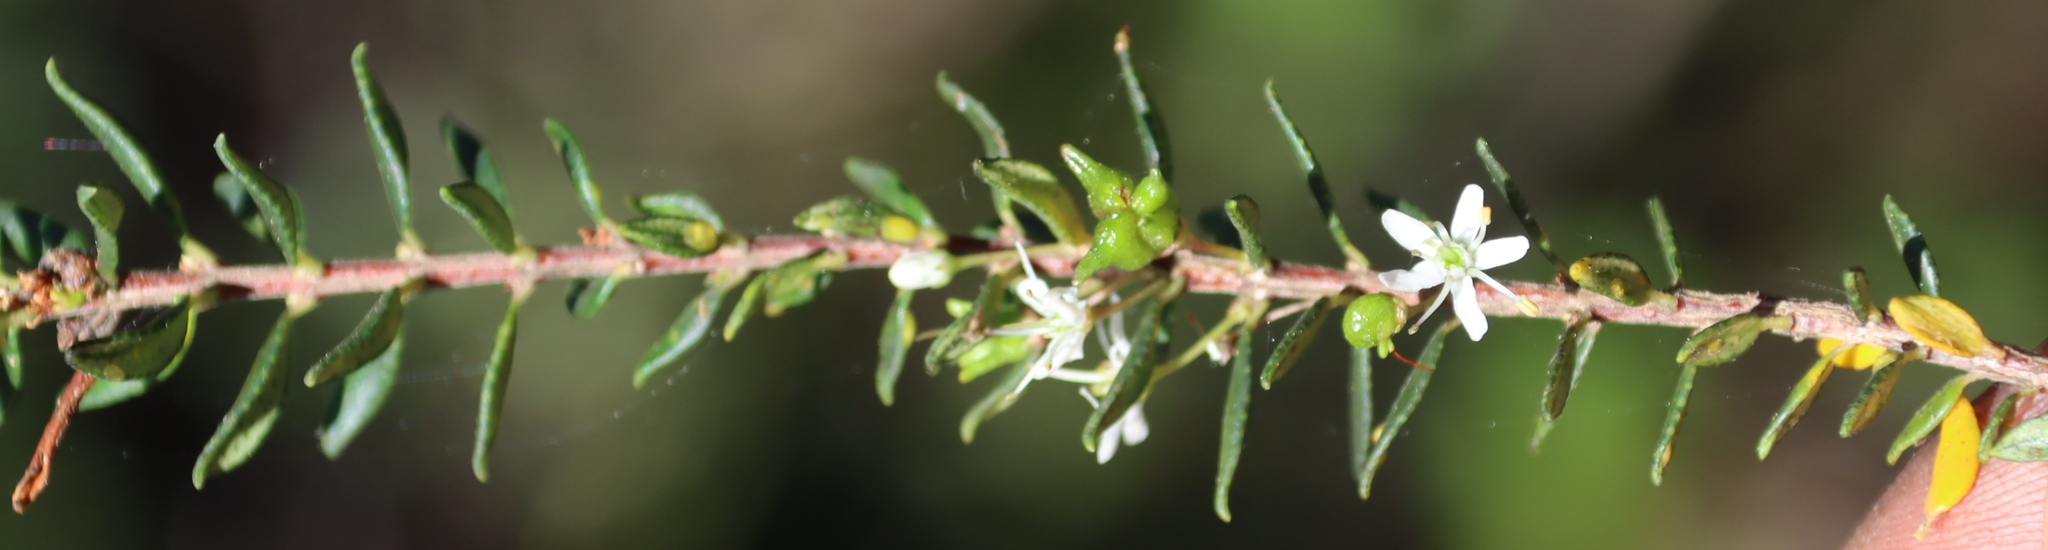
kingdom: Plantae
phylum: Tracheophyta
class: Magnoliopsida
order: Sapindales
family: Rutaceae
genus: Agathosma
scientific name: Agathosma ovata
